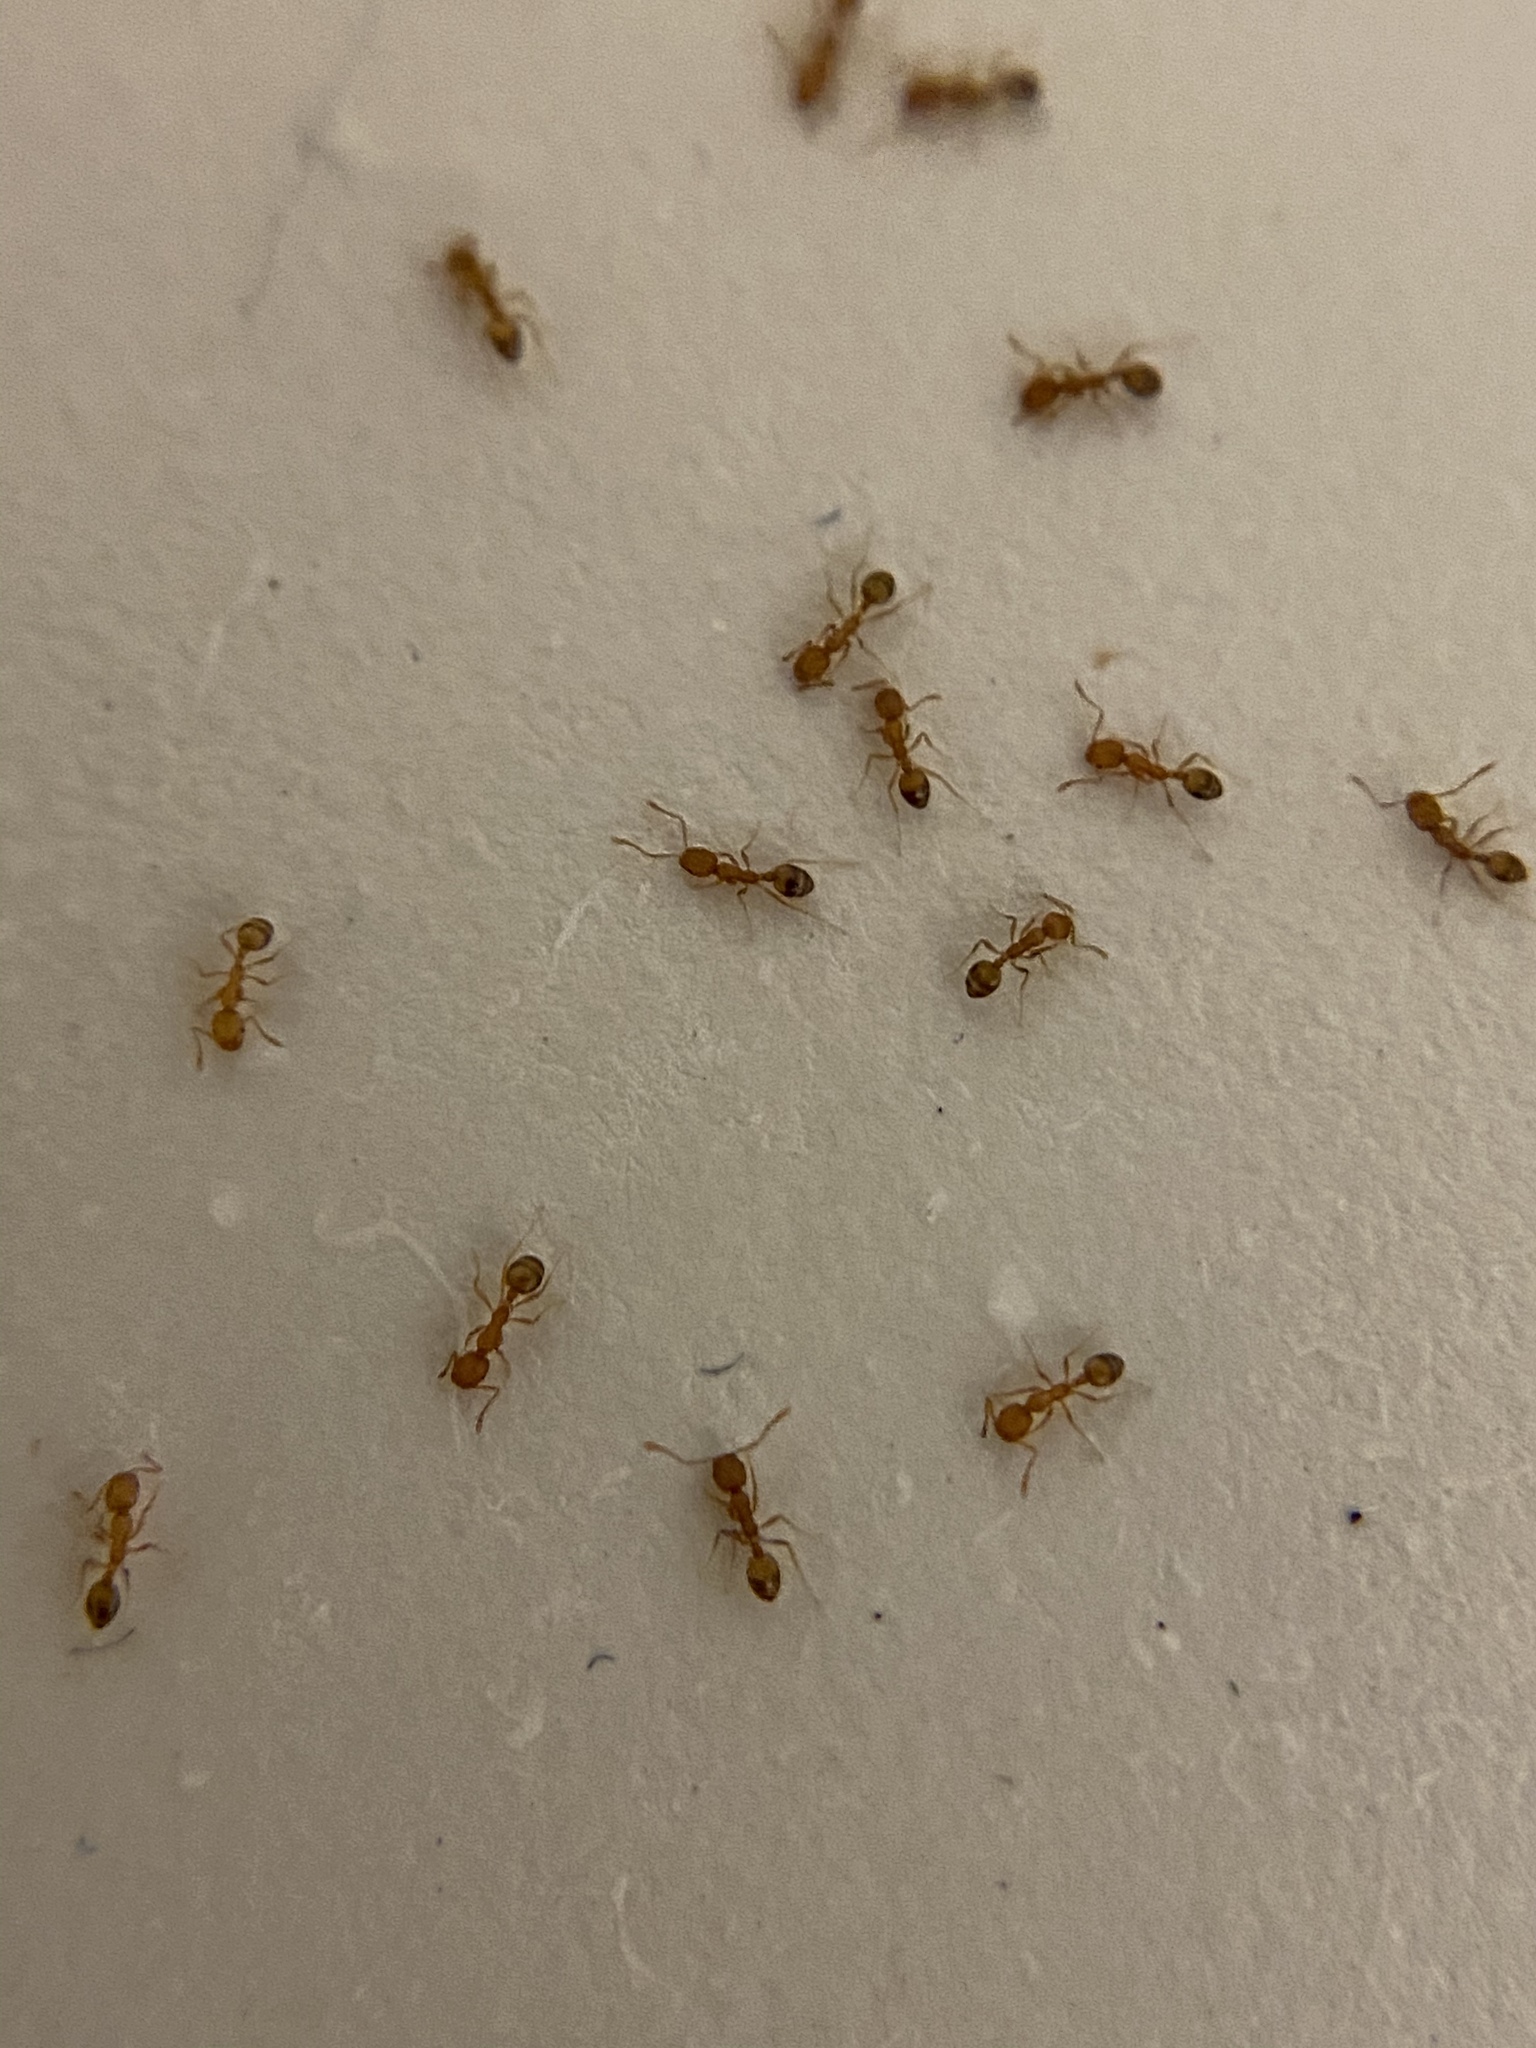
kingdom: Animalia
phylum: Arthropoda
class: Insecta
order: Hymenoptera
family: Formicidae
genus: Monomorium
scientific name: Monomorium pharaonis
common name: Pharaoh ant
